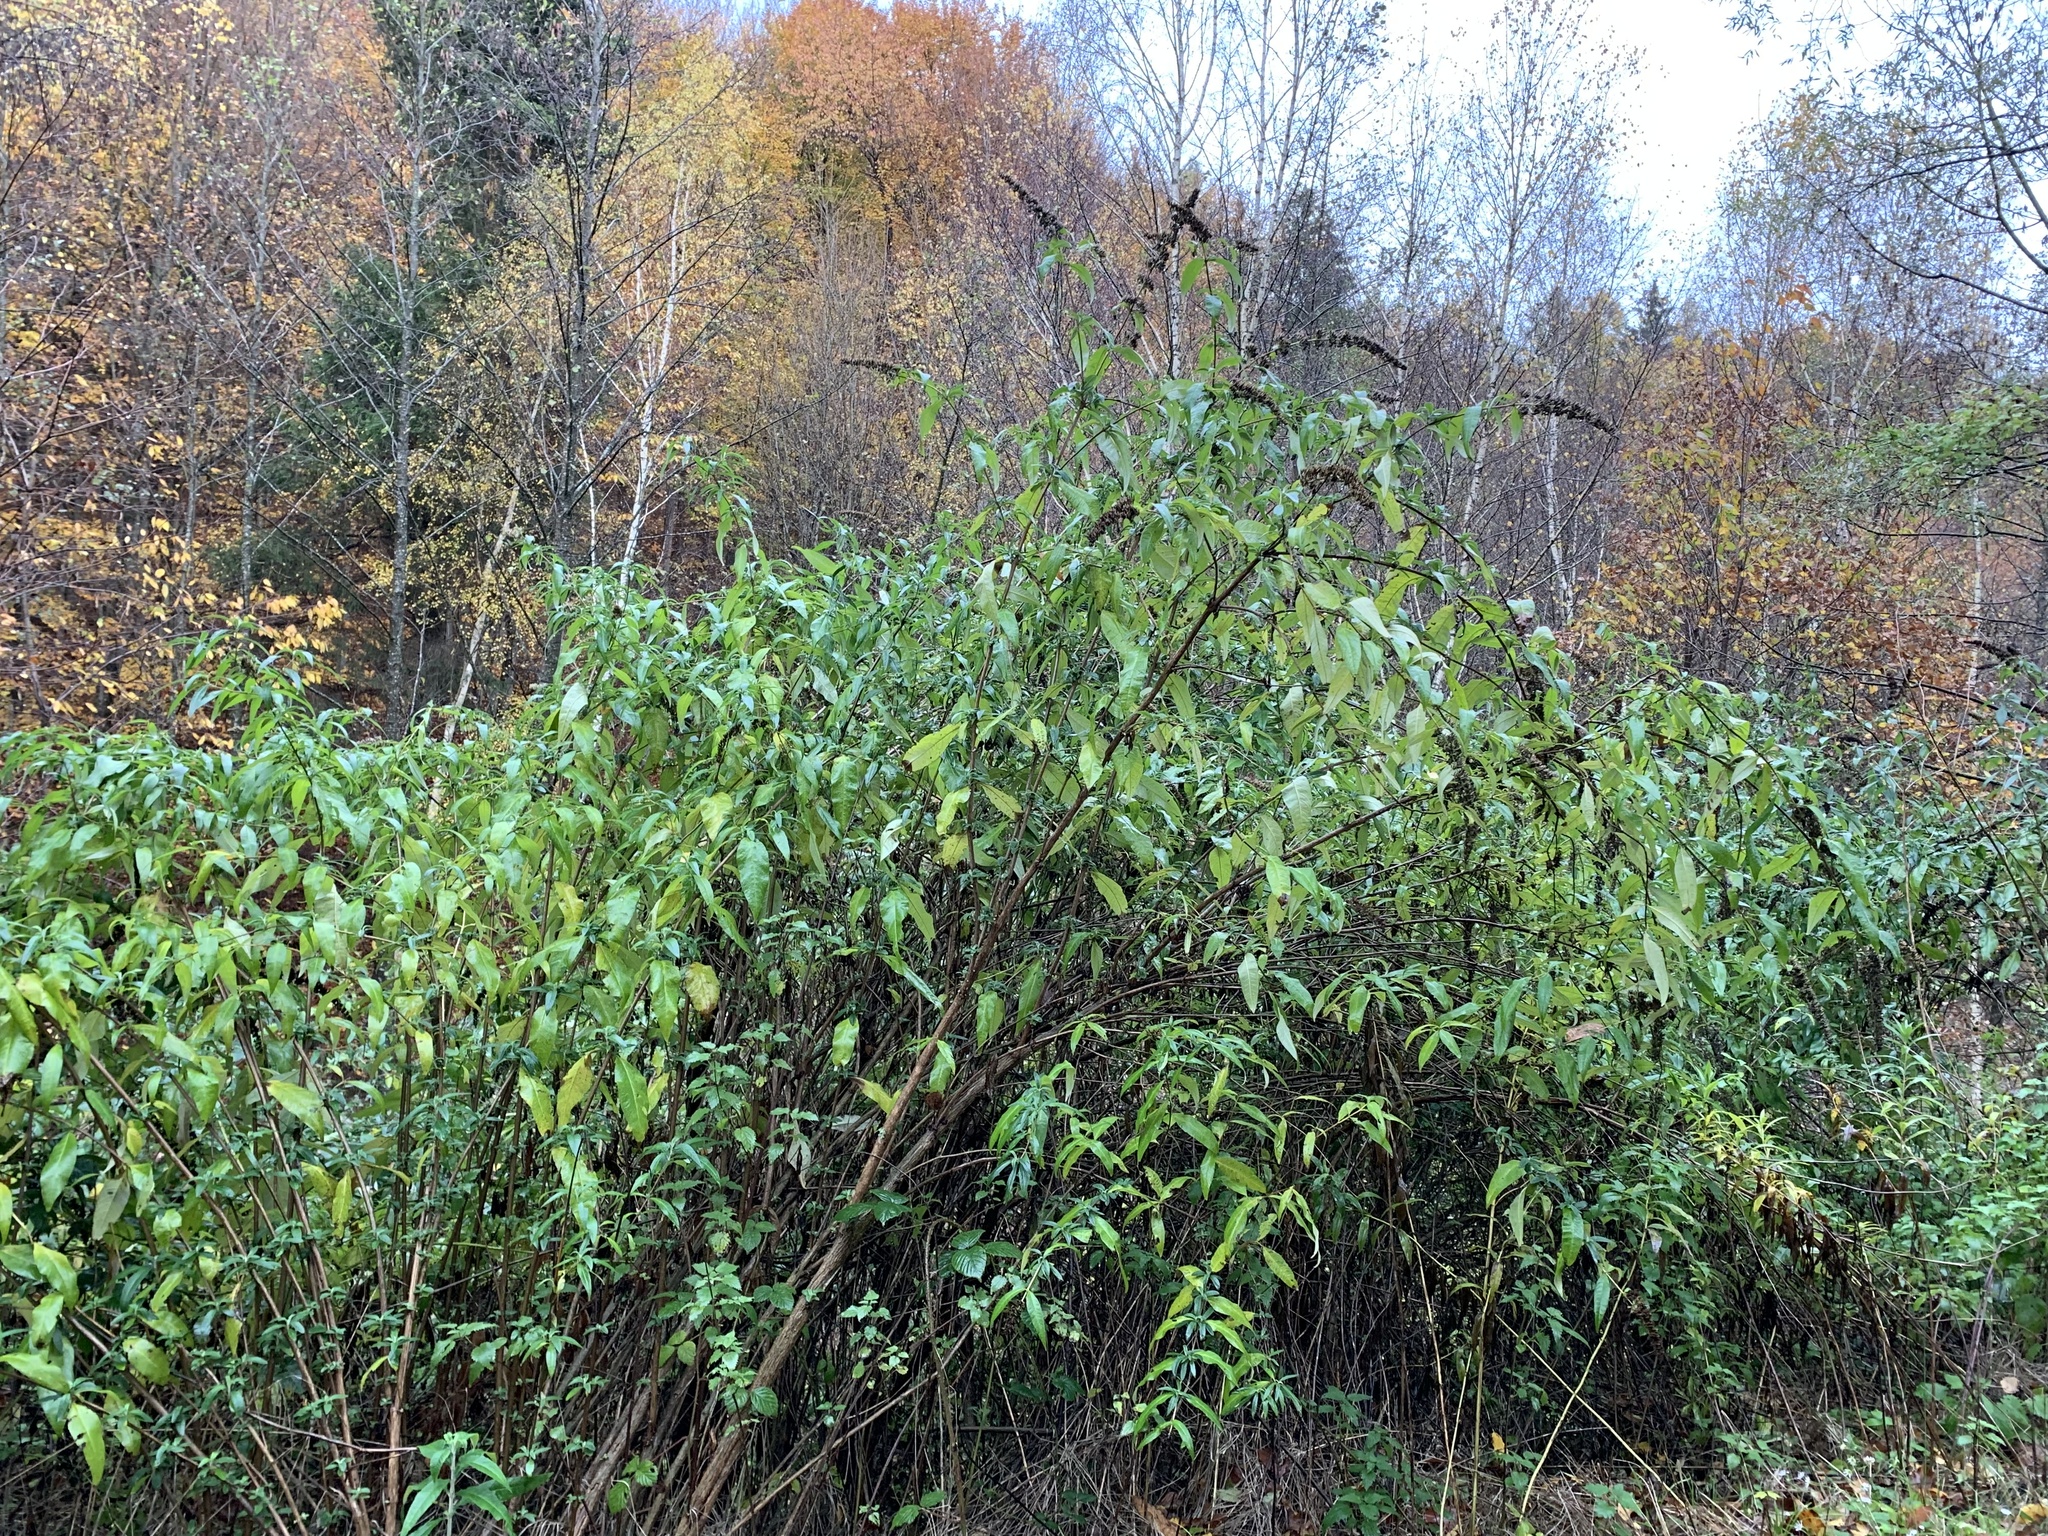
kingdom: Plantae
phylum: Tracheophyta
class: Magnoliopsida
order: Lamiales
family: Scrophulariaceae
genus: Buddleja
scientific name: Buddleja davidii
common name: Butterfly-bush
